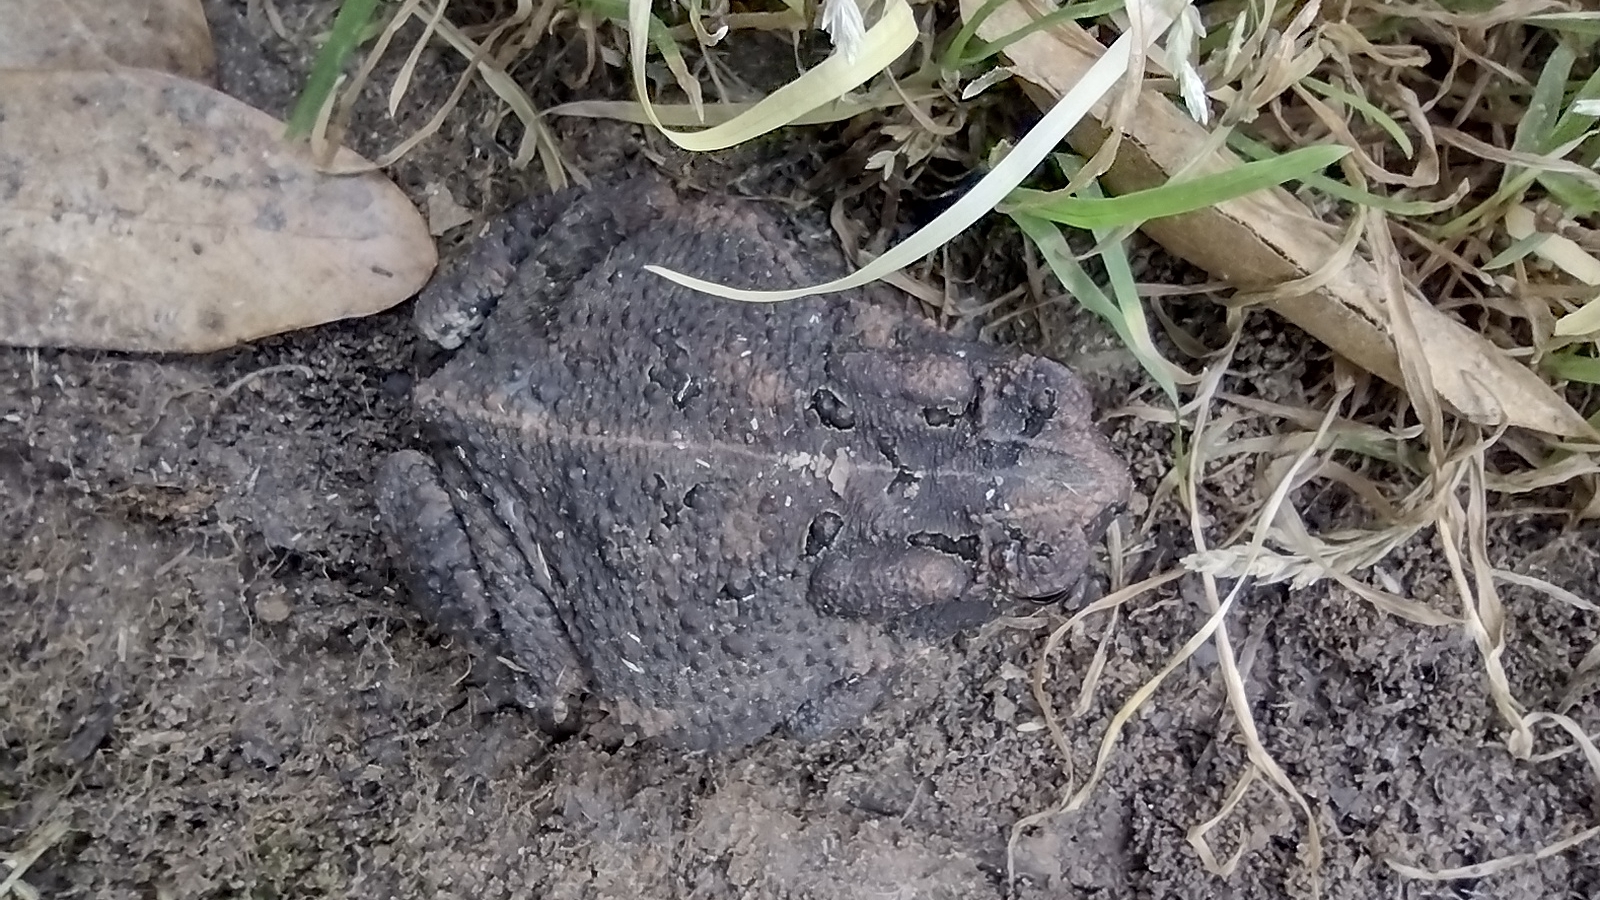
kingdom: Animalia
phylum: Chordata
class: Amphibia
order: Anura
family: Bufonidae
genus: Anaxyrus
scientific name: Anaxyrus americanus
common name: American toad
